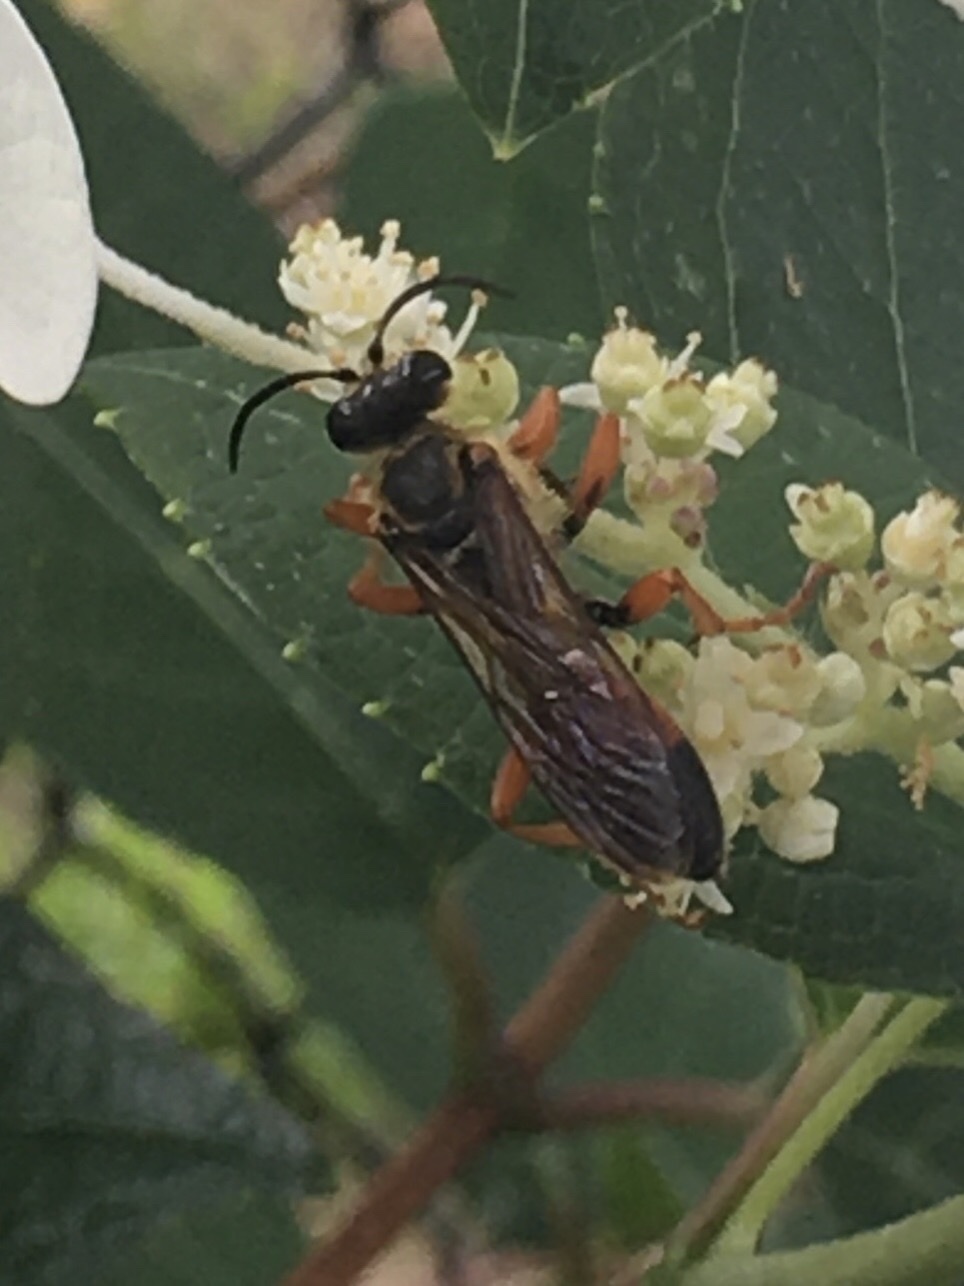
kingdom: Animalia
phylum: Arthropoda
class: Insecta
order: Hymenoptera
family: Sphecidae
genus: Sphex
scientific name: Sphex ichneumoneus
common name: Great golden digger wasp
